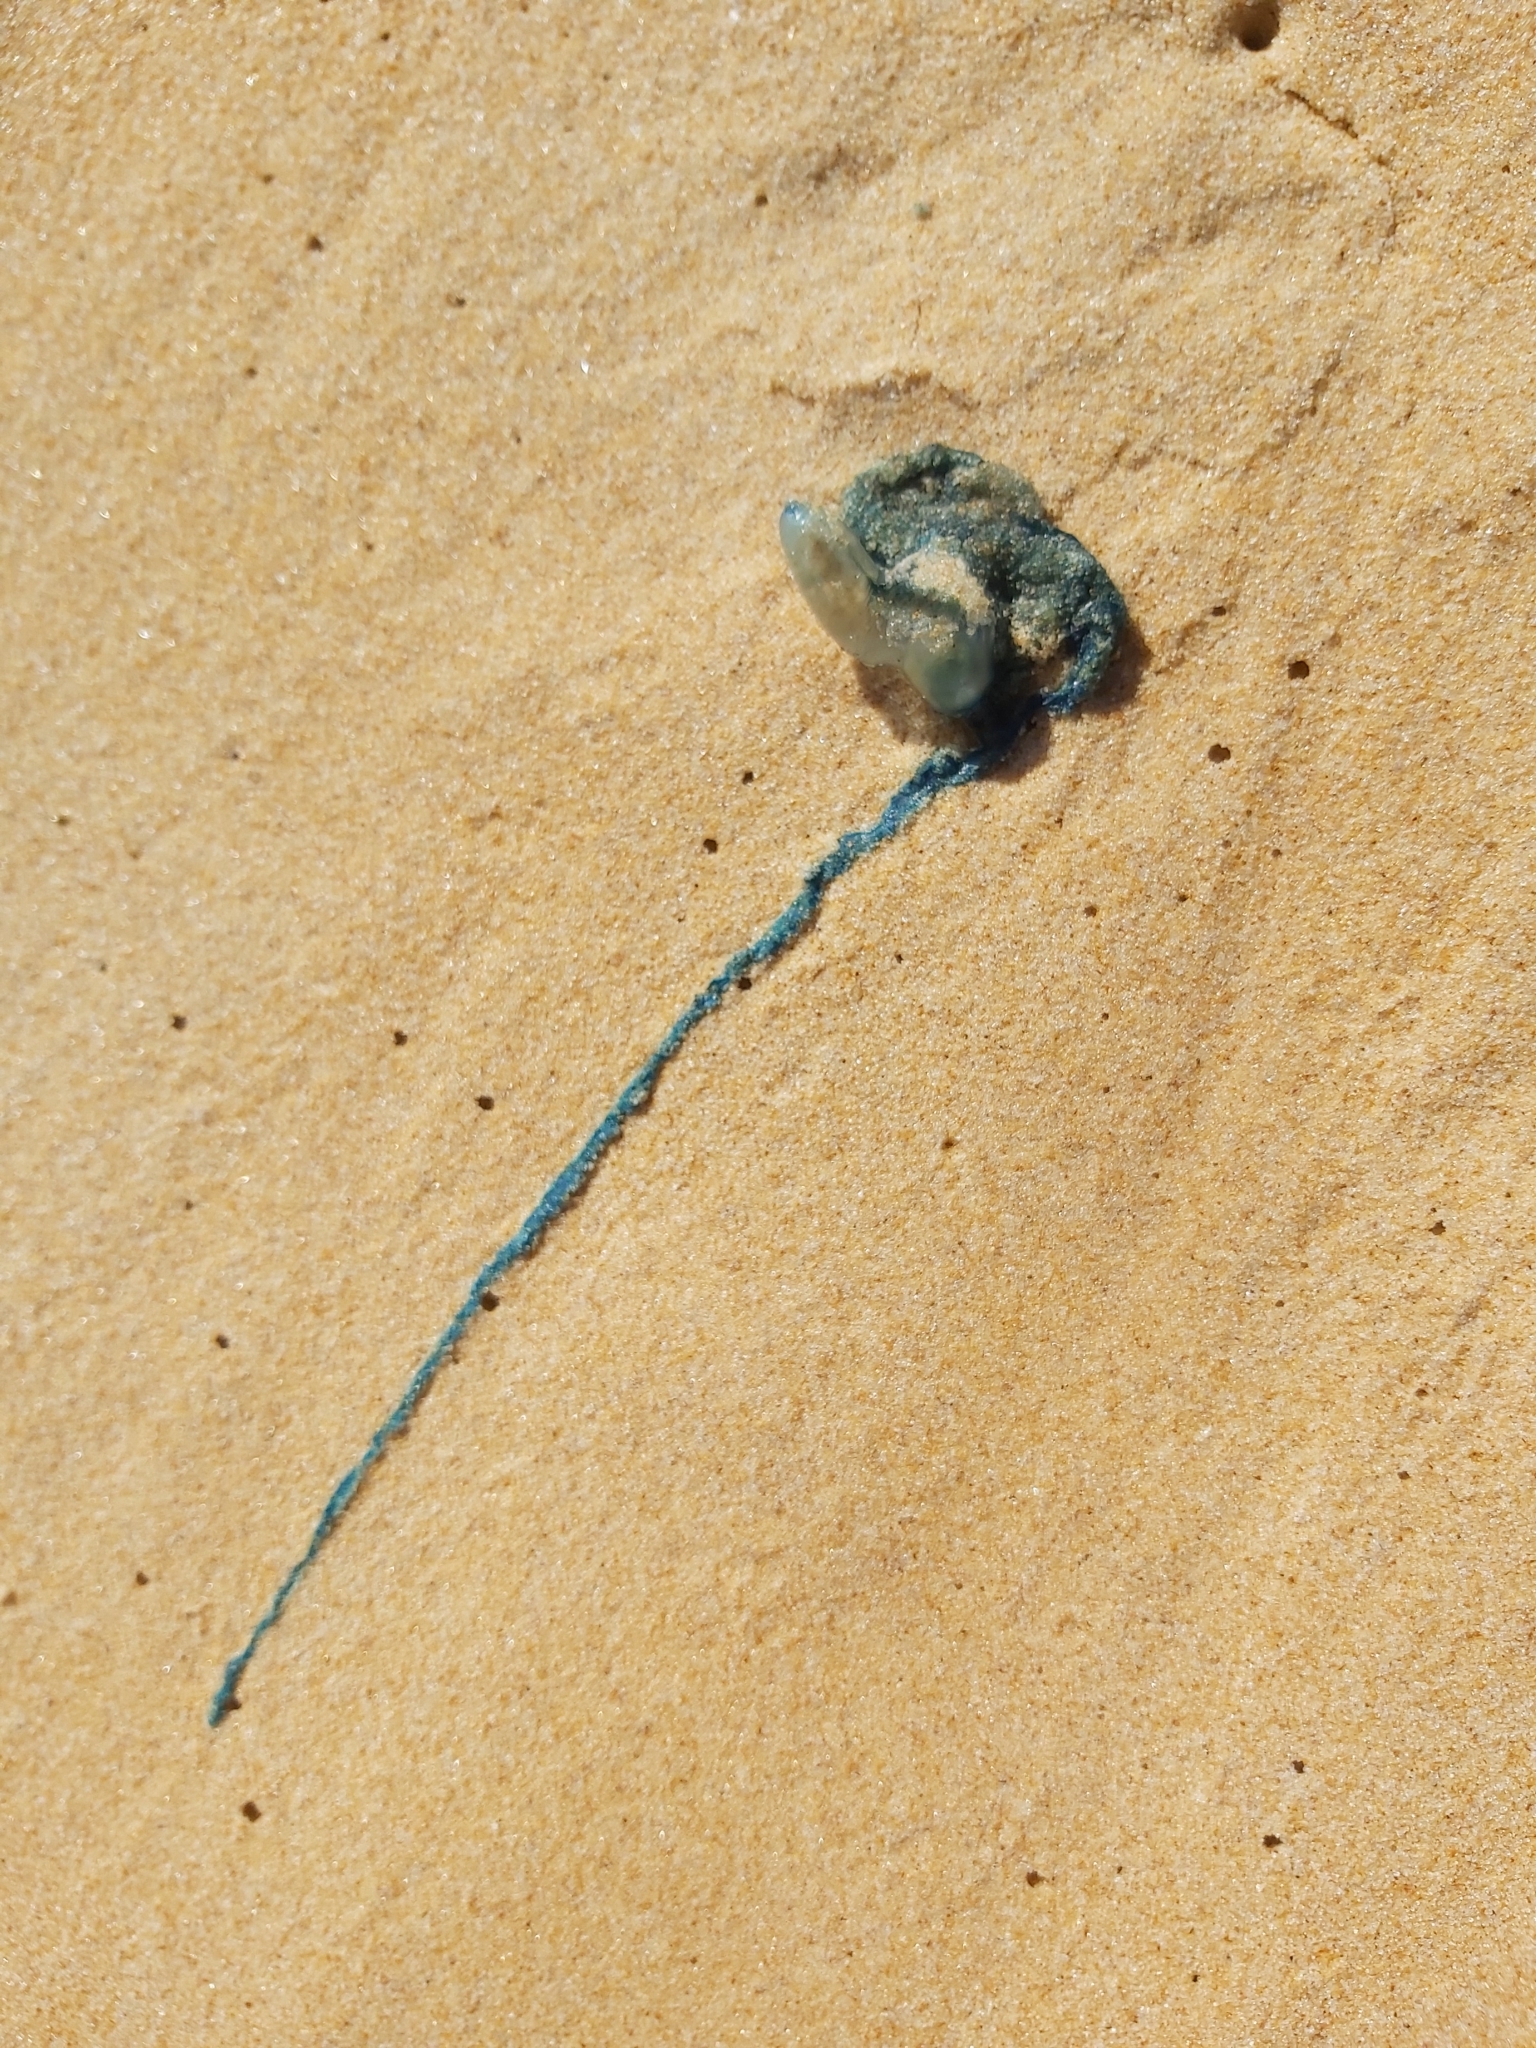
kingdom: Animalia
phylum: Cnidaria
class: Hydrozoa
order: Siphonophorae
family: Physaliidae
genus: Physalia
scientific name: Physalia physalis
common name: Portuguese man-of-war
